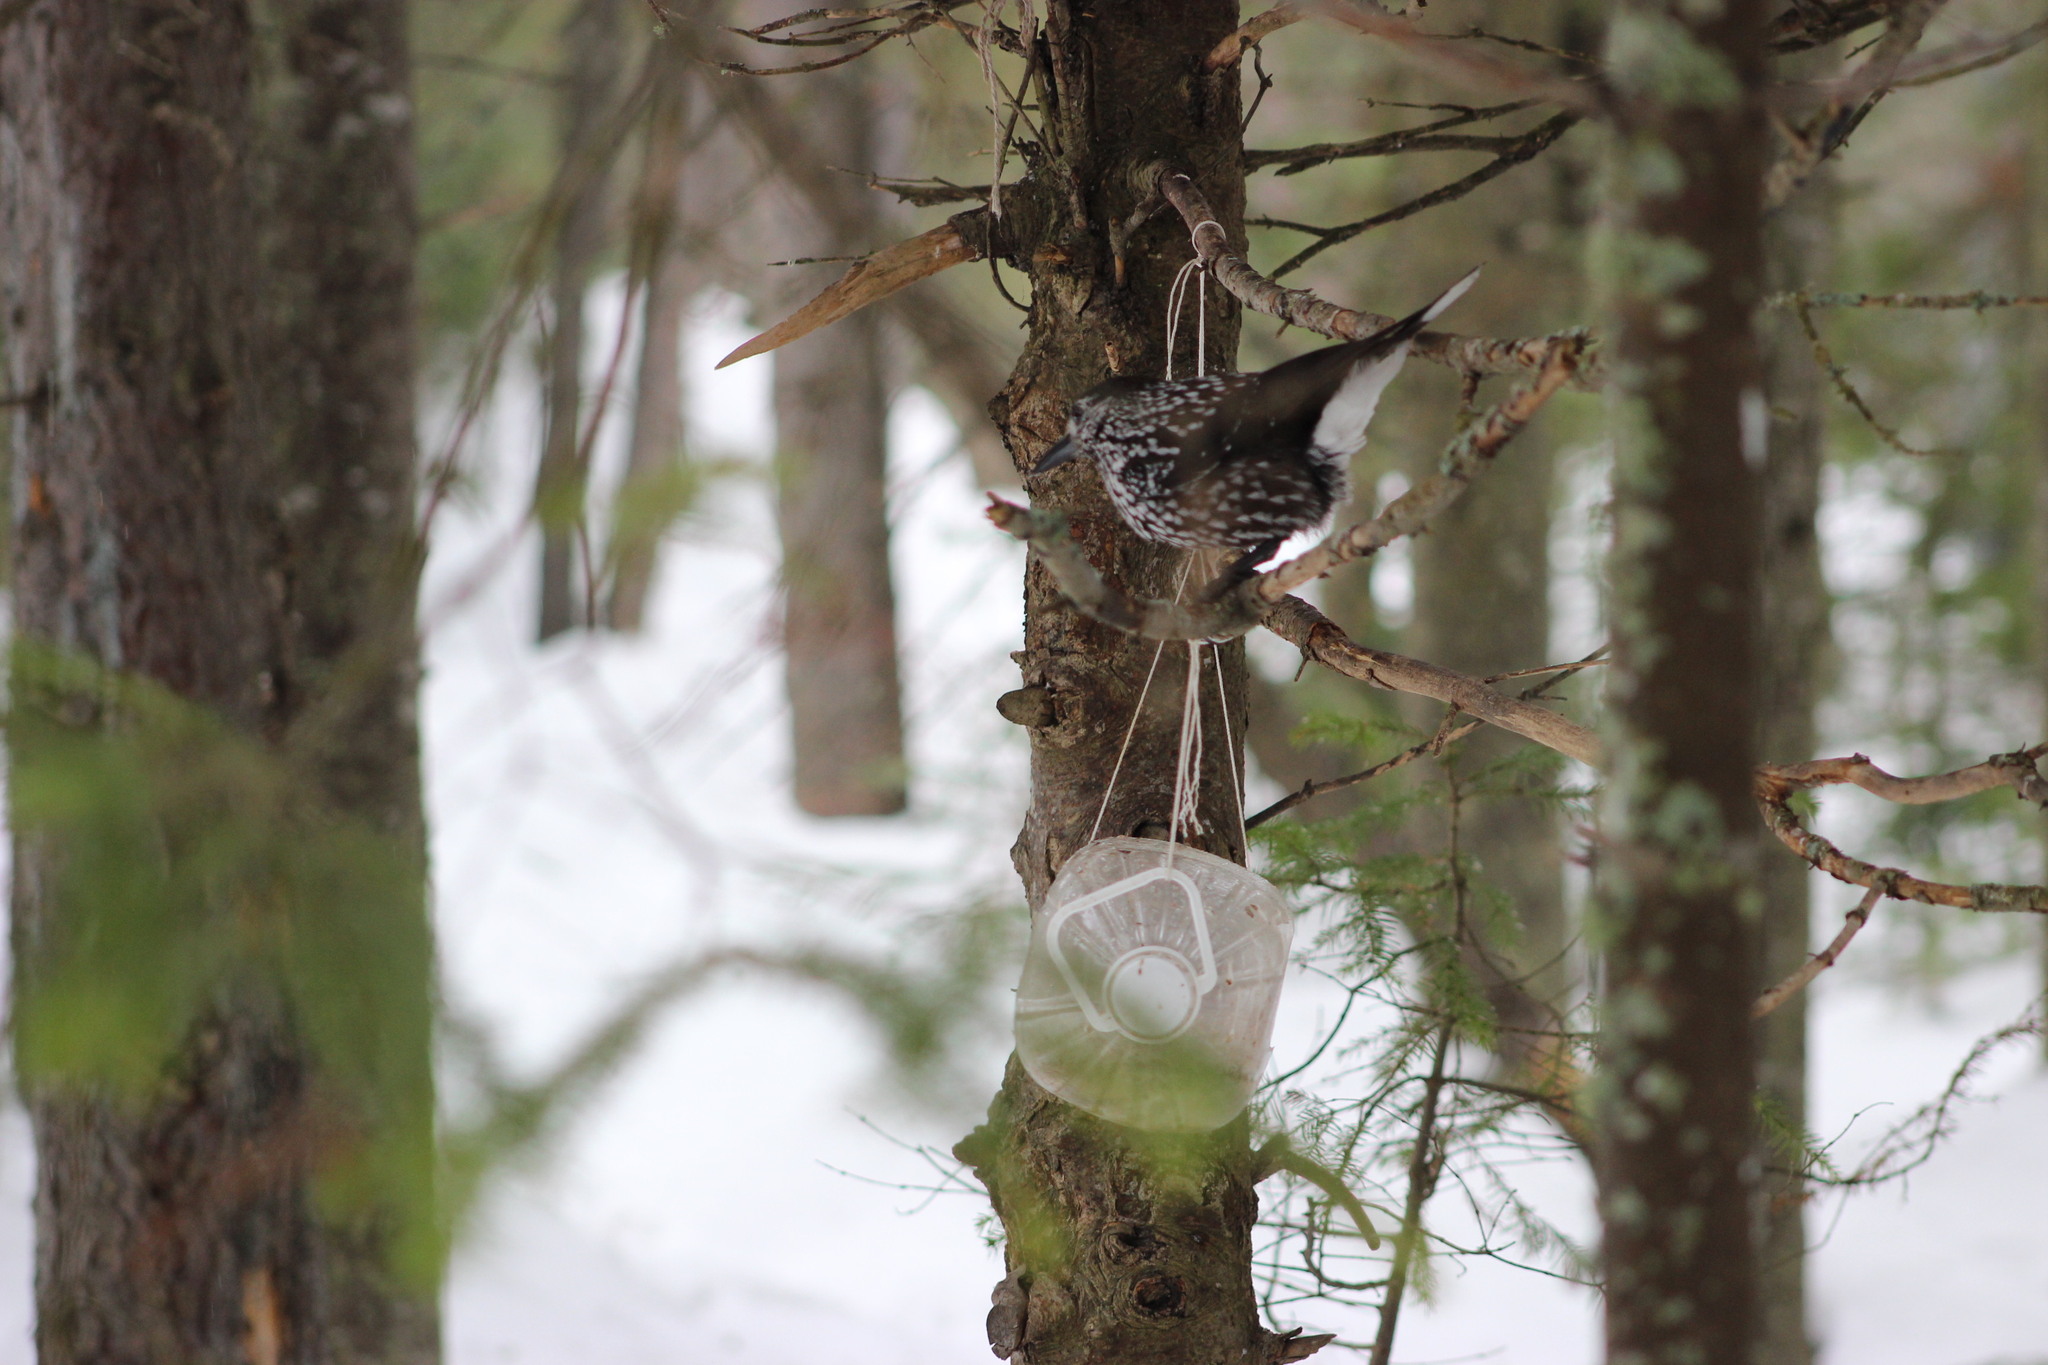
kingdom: Animalia
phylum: Chordata
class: Aves
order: Passeriformes
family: Corvidae
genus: Nucifraga
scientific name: Nucifraga caryocatactes
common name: Spotted nutcracker
